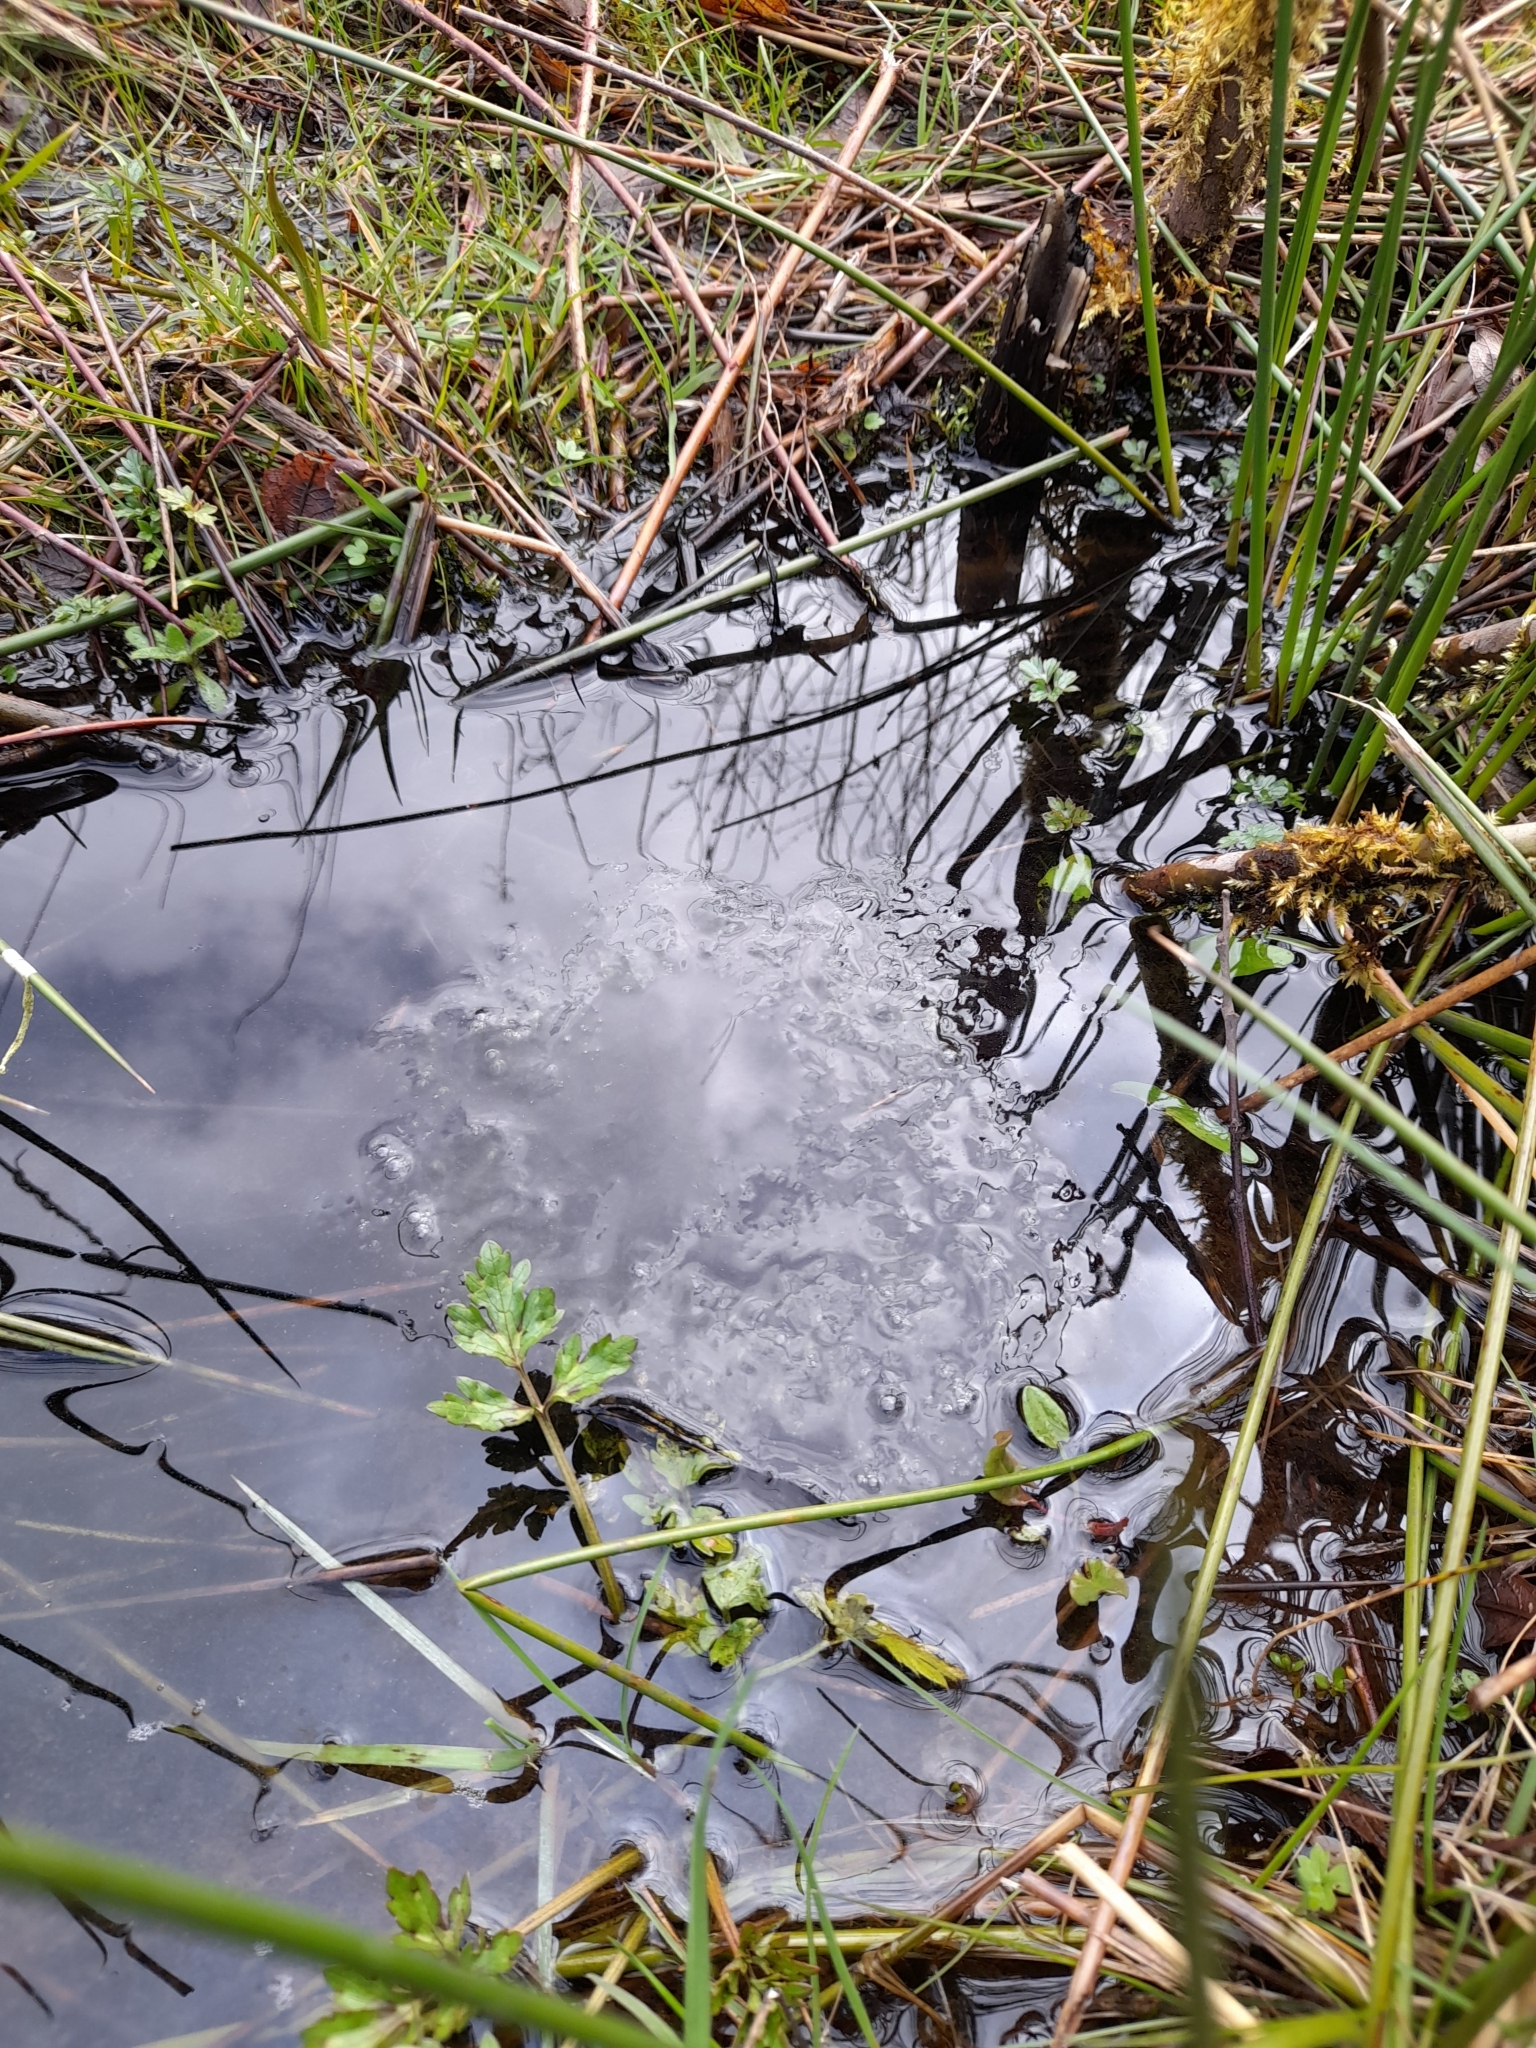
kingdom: Animalia
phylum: Chordata
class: Amphibia
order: Anura
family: Ranidae
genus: Rana
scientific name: Rana temporaria
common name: Common frog
